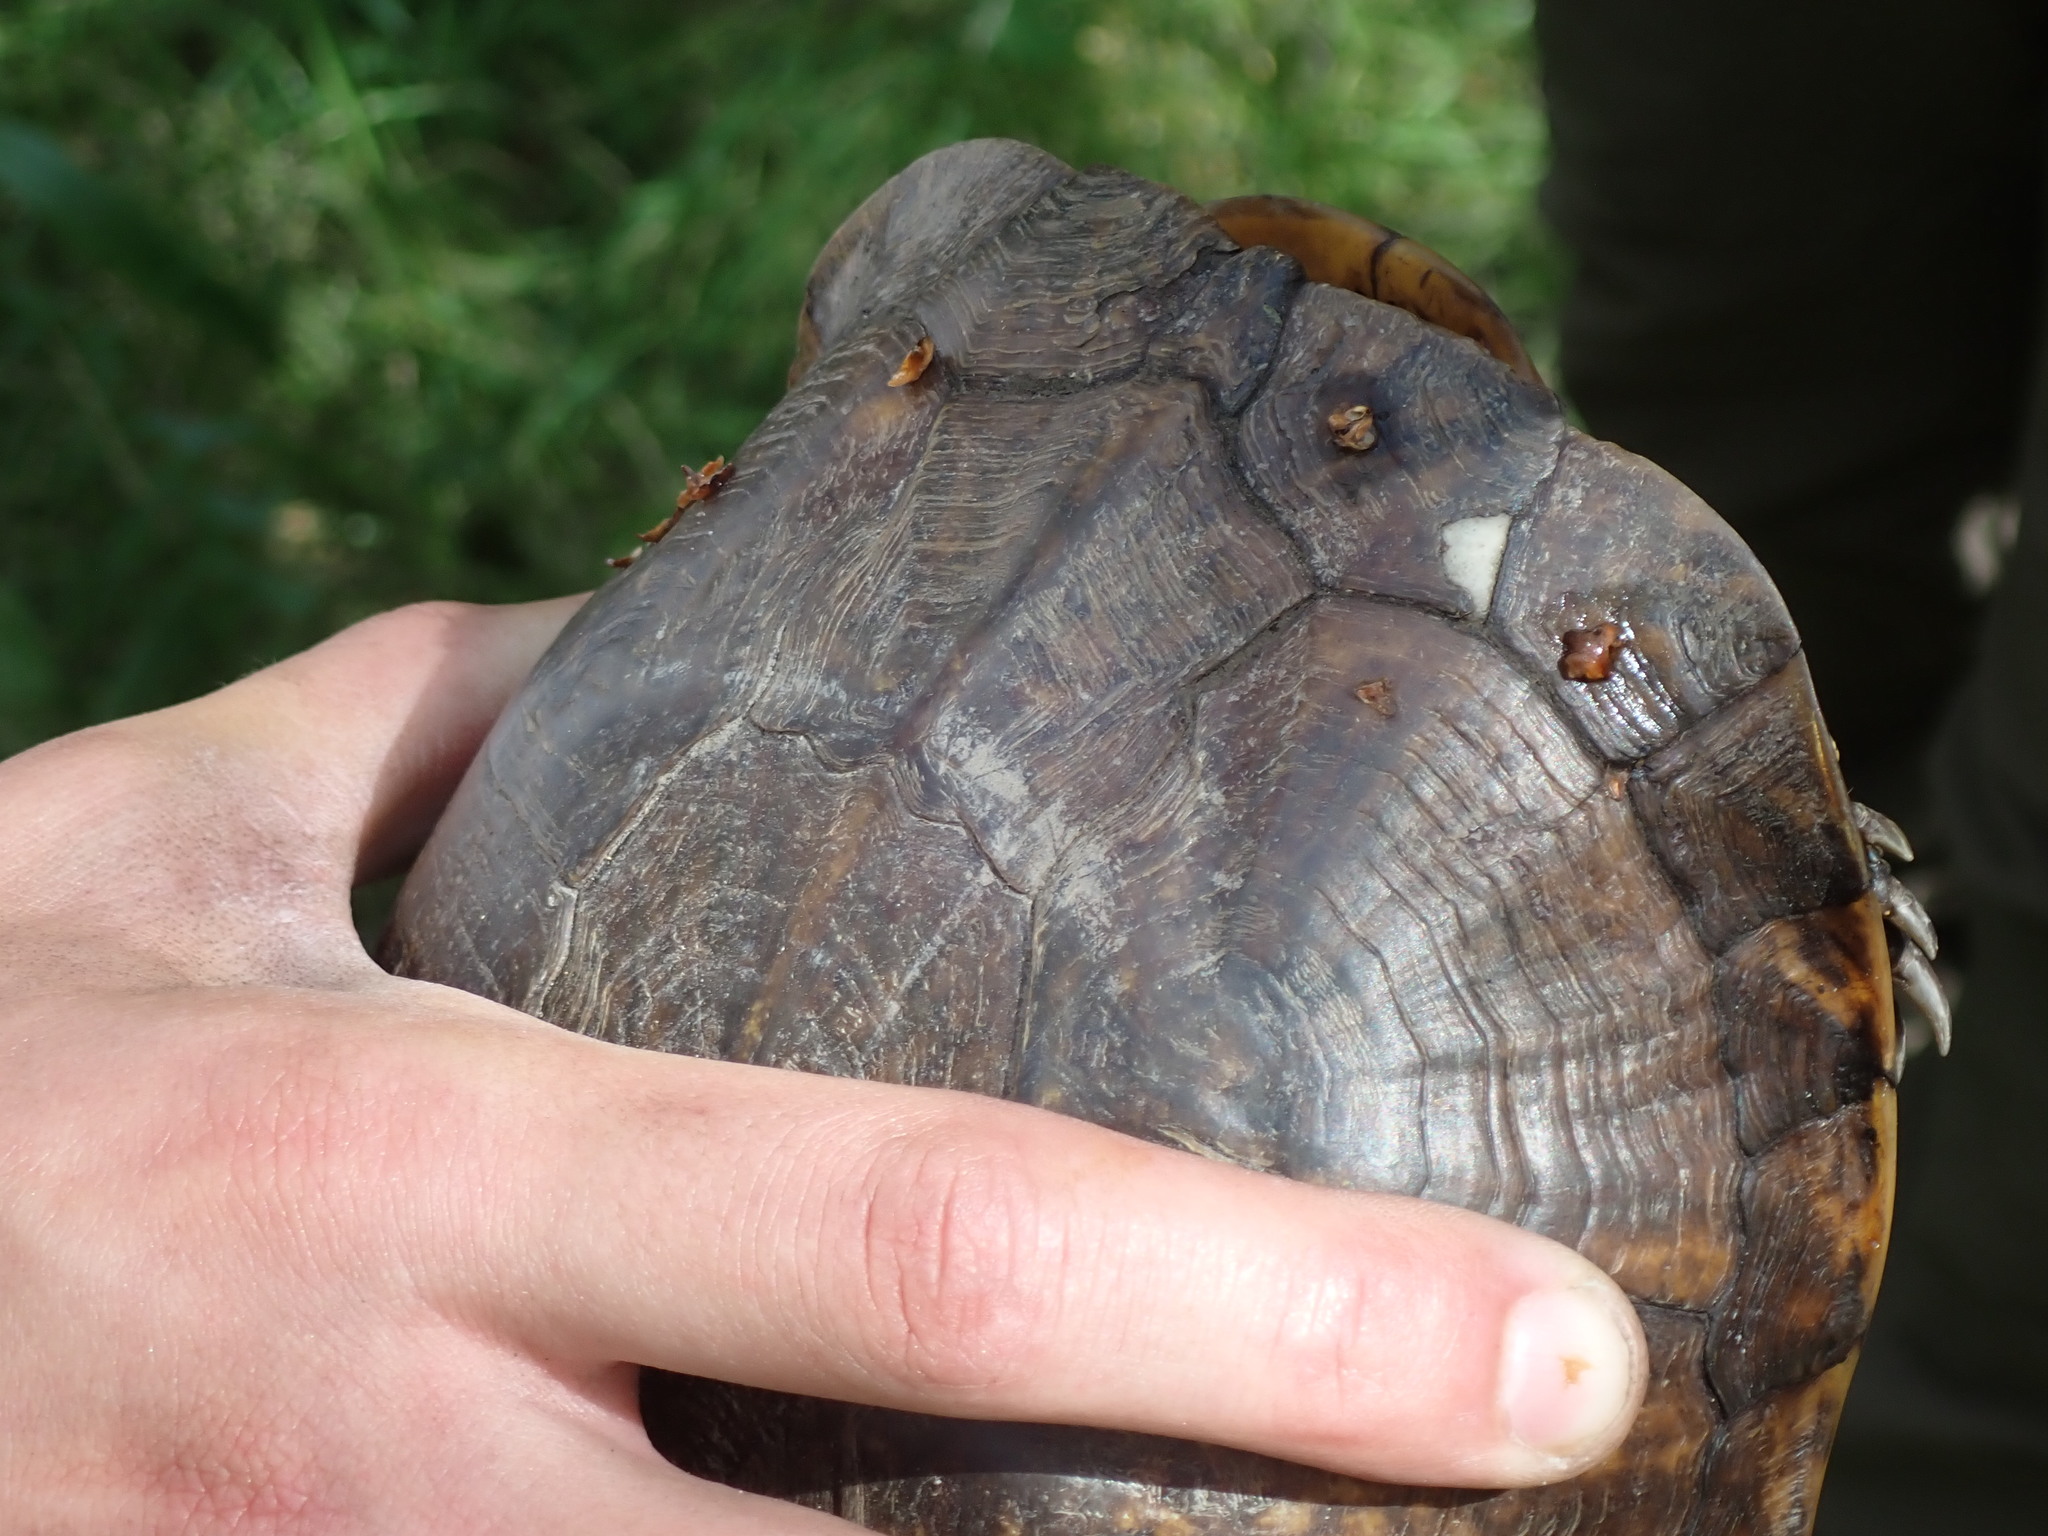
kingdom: Animalia
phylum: Chordata
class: Testudines
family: Emydidae
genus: Terrapene
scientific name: Terrapene carolina
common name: Common box turtle
